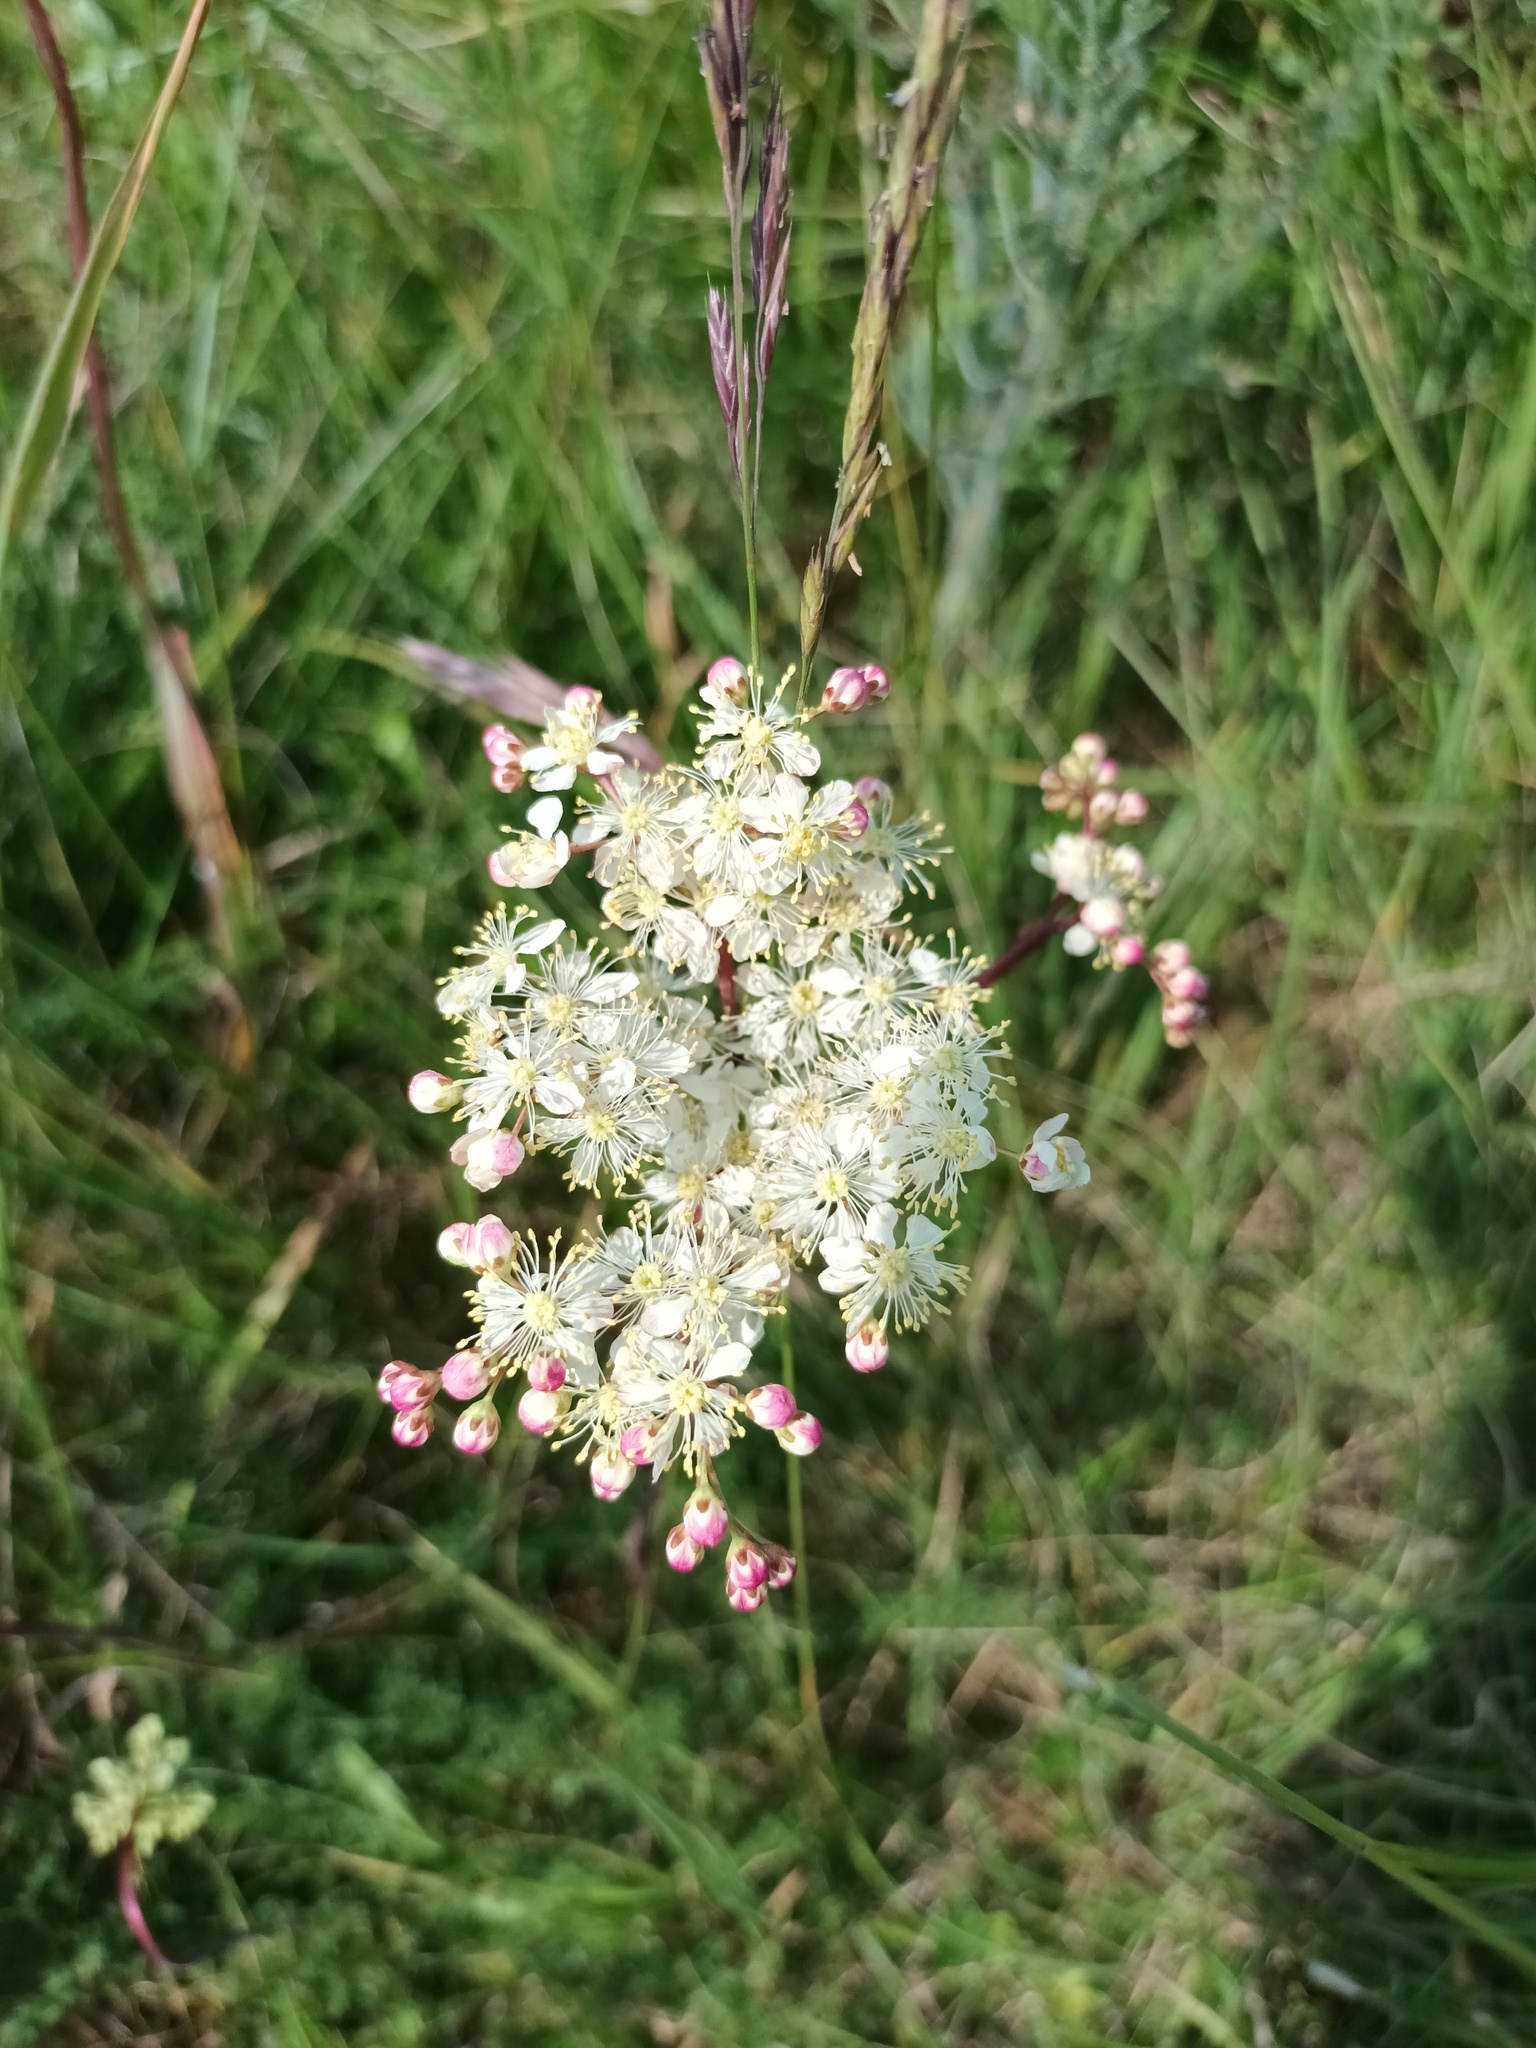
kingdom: Plantae
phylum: Tracheophyta
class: Magnoliopsida
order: Rosales
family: Rosaceae
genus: Filipendula
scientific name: Filipendula vulgaris
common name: Dropwort
